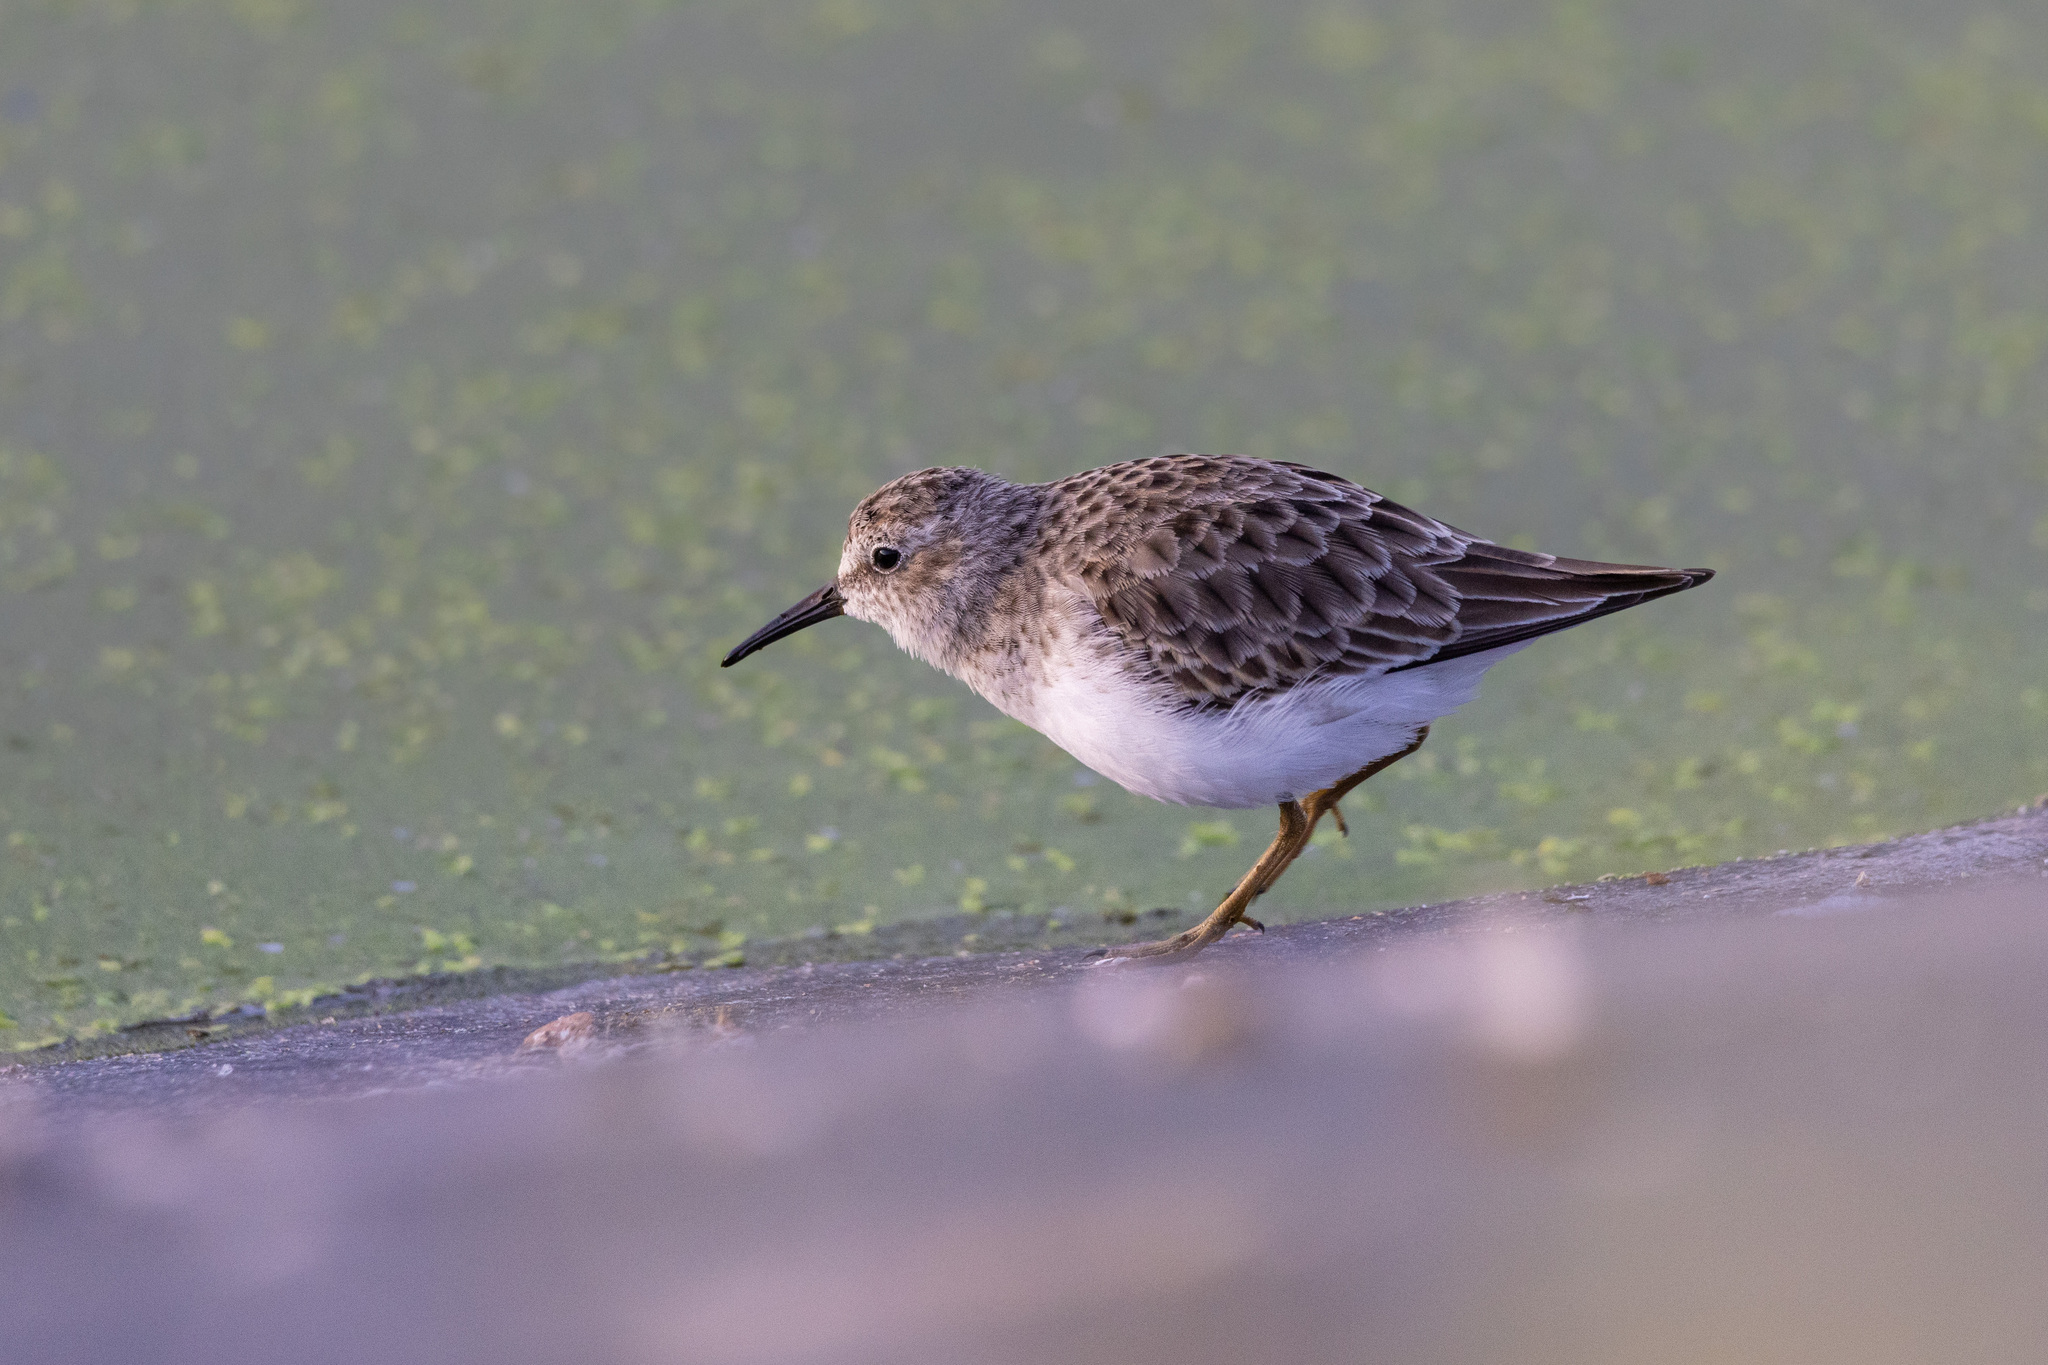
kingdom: Animalia
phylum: Chordata
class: Aves
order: Charadriiformes
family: Scolopacidae
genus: Calidris
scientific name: Calidris minutilla
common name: Least sandpiper
